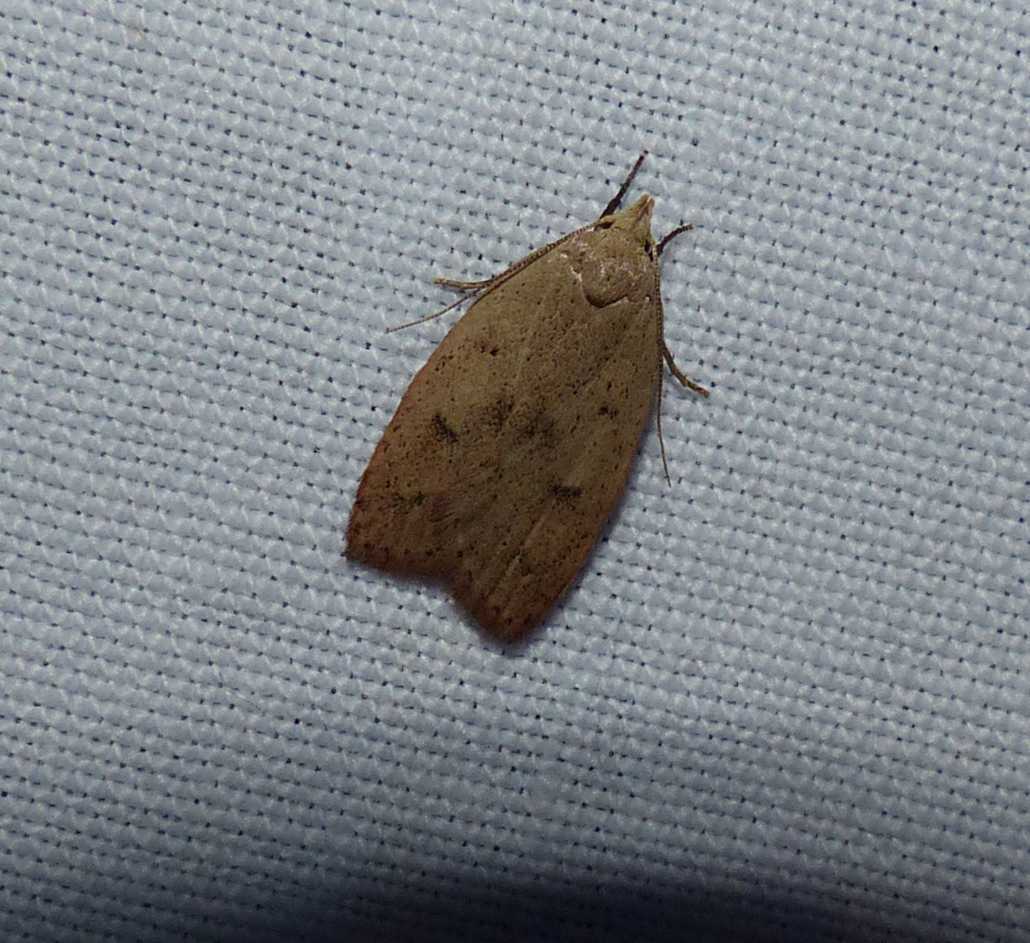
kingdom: Animalia
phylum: Arthropoda
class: Insecta
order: Lepidoptera
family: Peleopodidae
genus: Machimia
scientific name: Machimia tentoriferella
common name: Gold-striped leaftier moth
